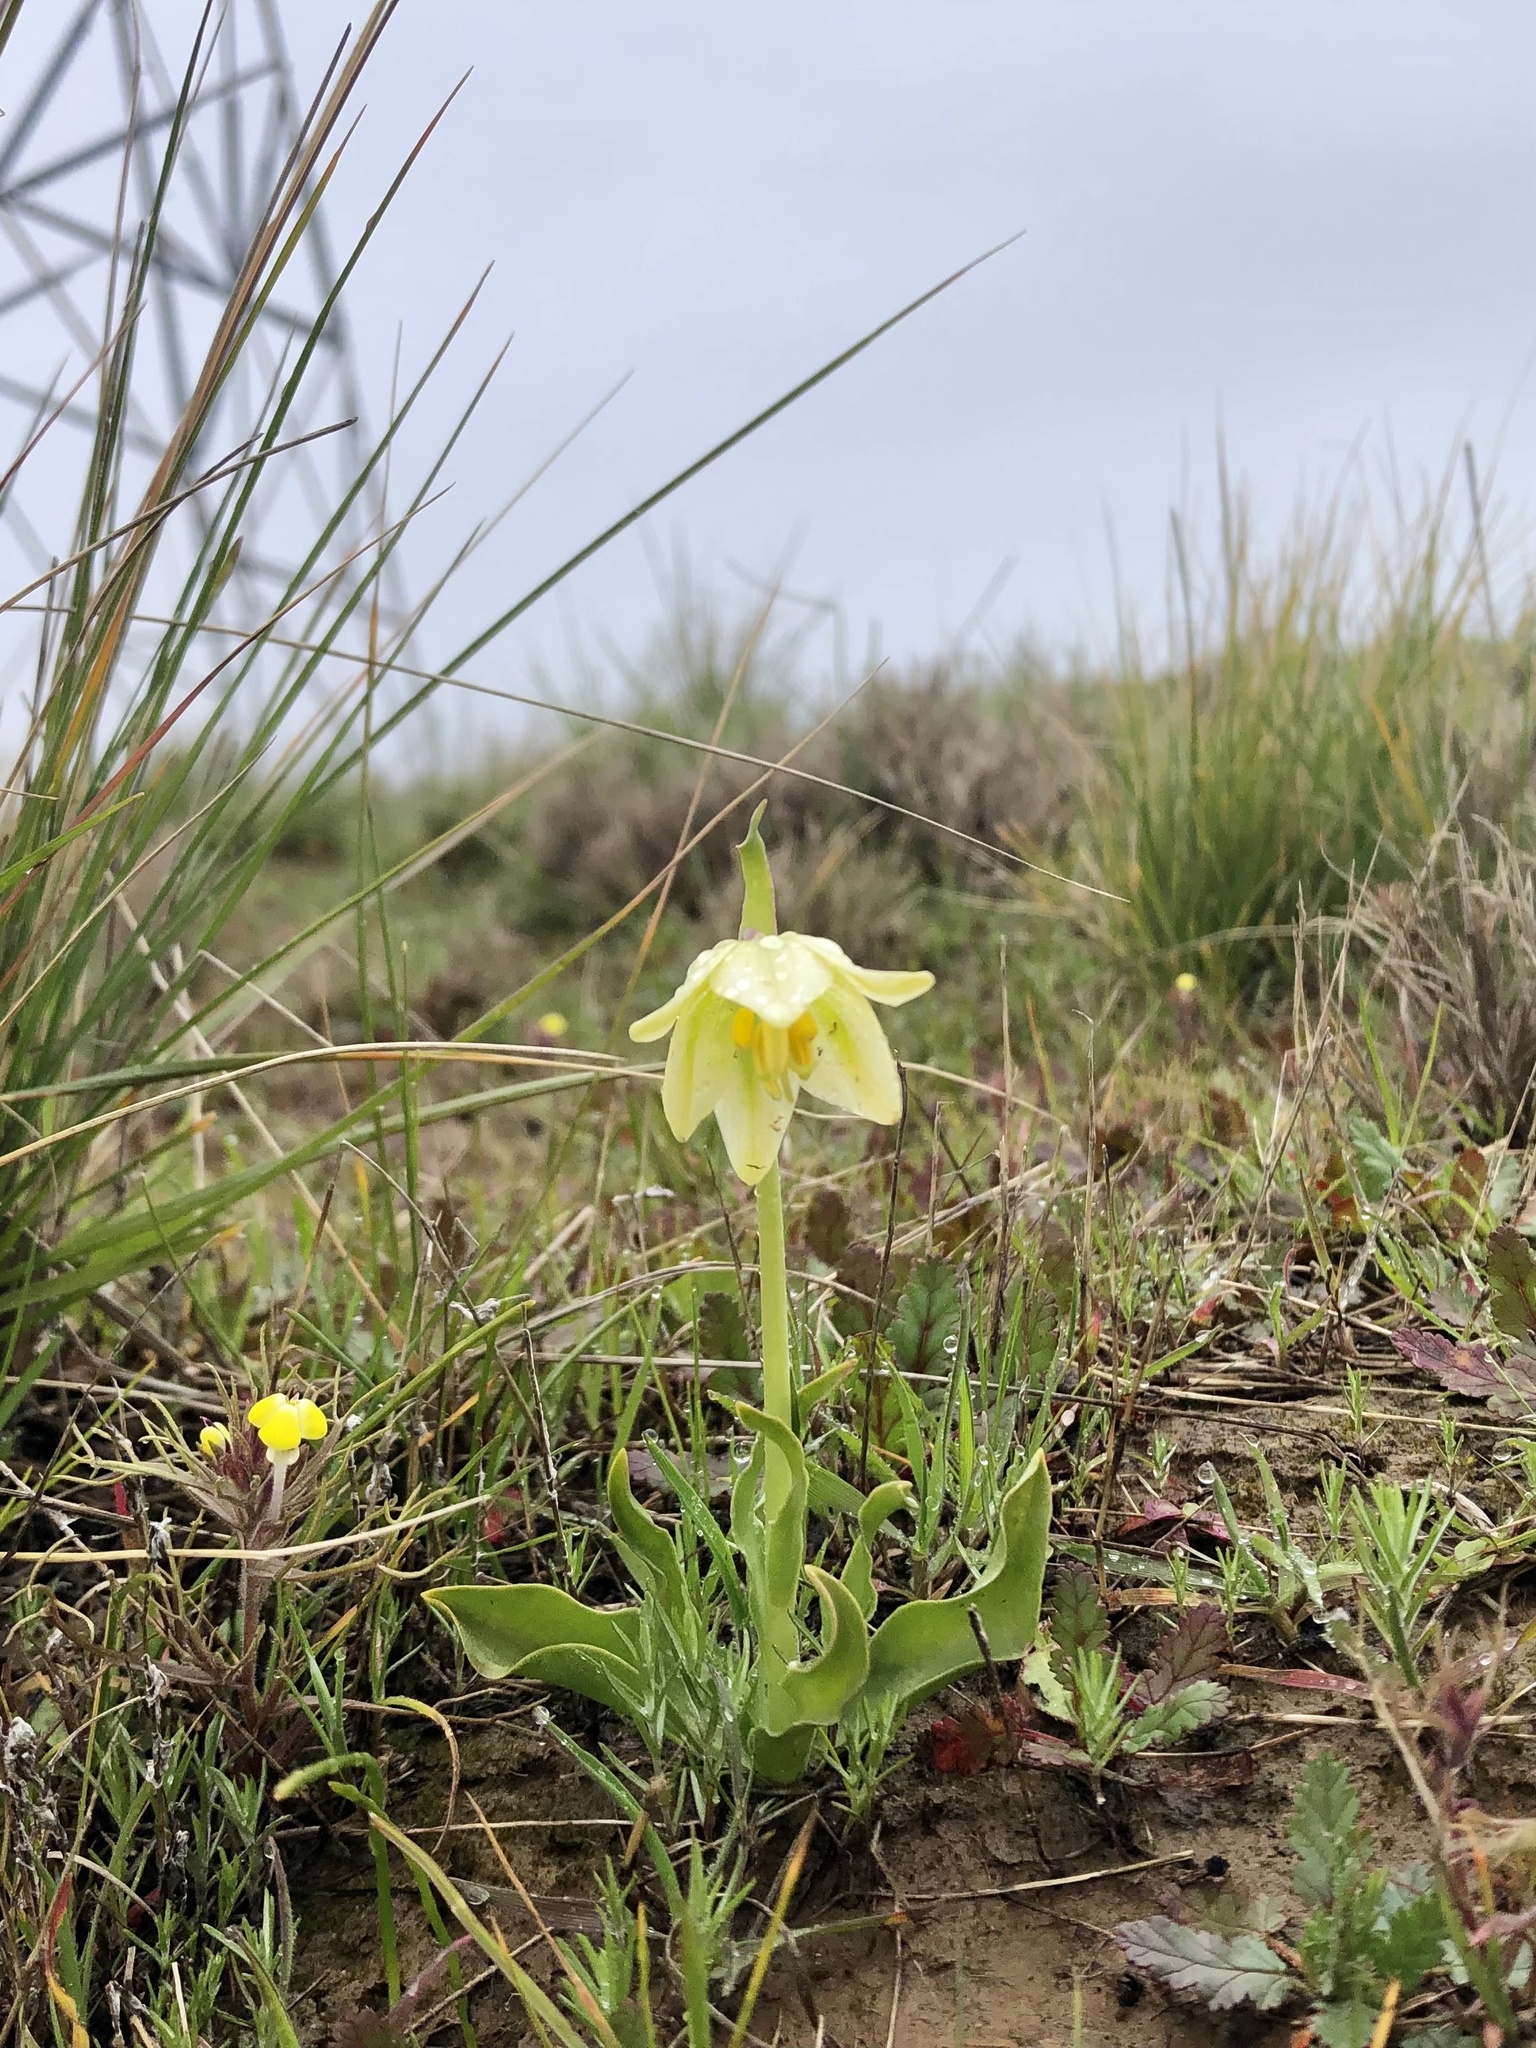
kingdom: Plantae
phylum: Tracheophyta
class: Liliopsida
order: Liliales
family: Liliaceae
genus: Fritillaria
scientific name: Fritillaria liliacea
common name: Fragrant fritillary
